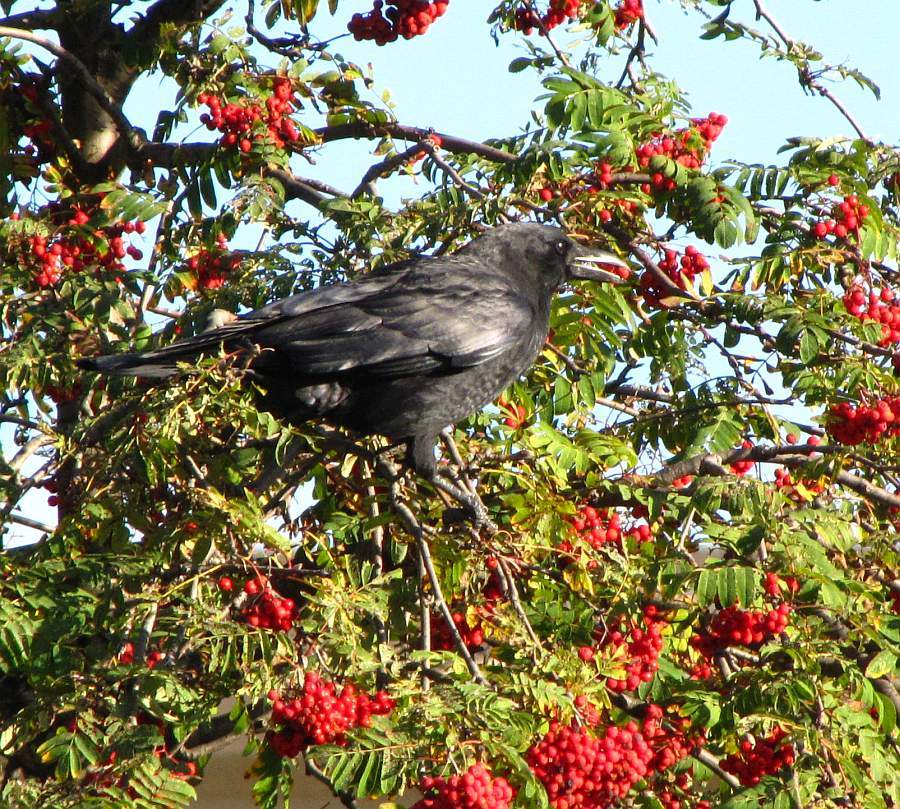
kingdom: Animalia
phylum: Chordata
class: Aves
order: Passeriformes
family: Corvidae
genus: Corvus
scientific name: Corvus brachyrhynchos
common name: American crow
